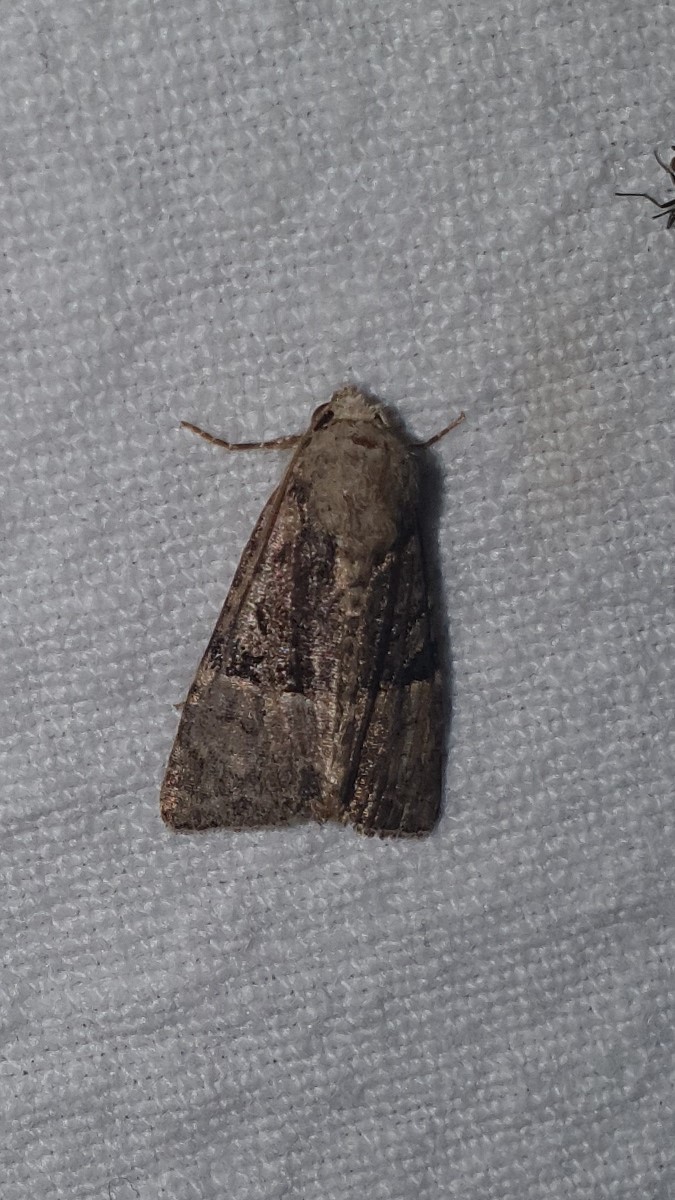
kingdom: Animalia
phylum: Arthropoda
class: Insecta
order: Lepidoptera
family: Noctuidae
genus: Mesoligia
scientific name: Mesoligia furuncula
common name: Cloaked minor
